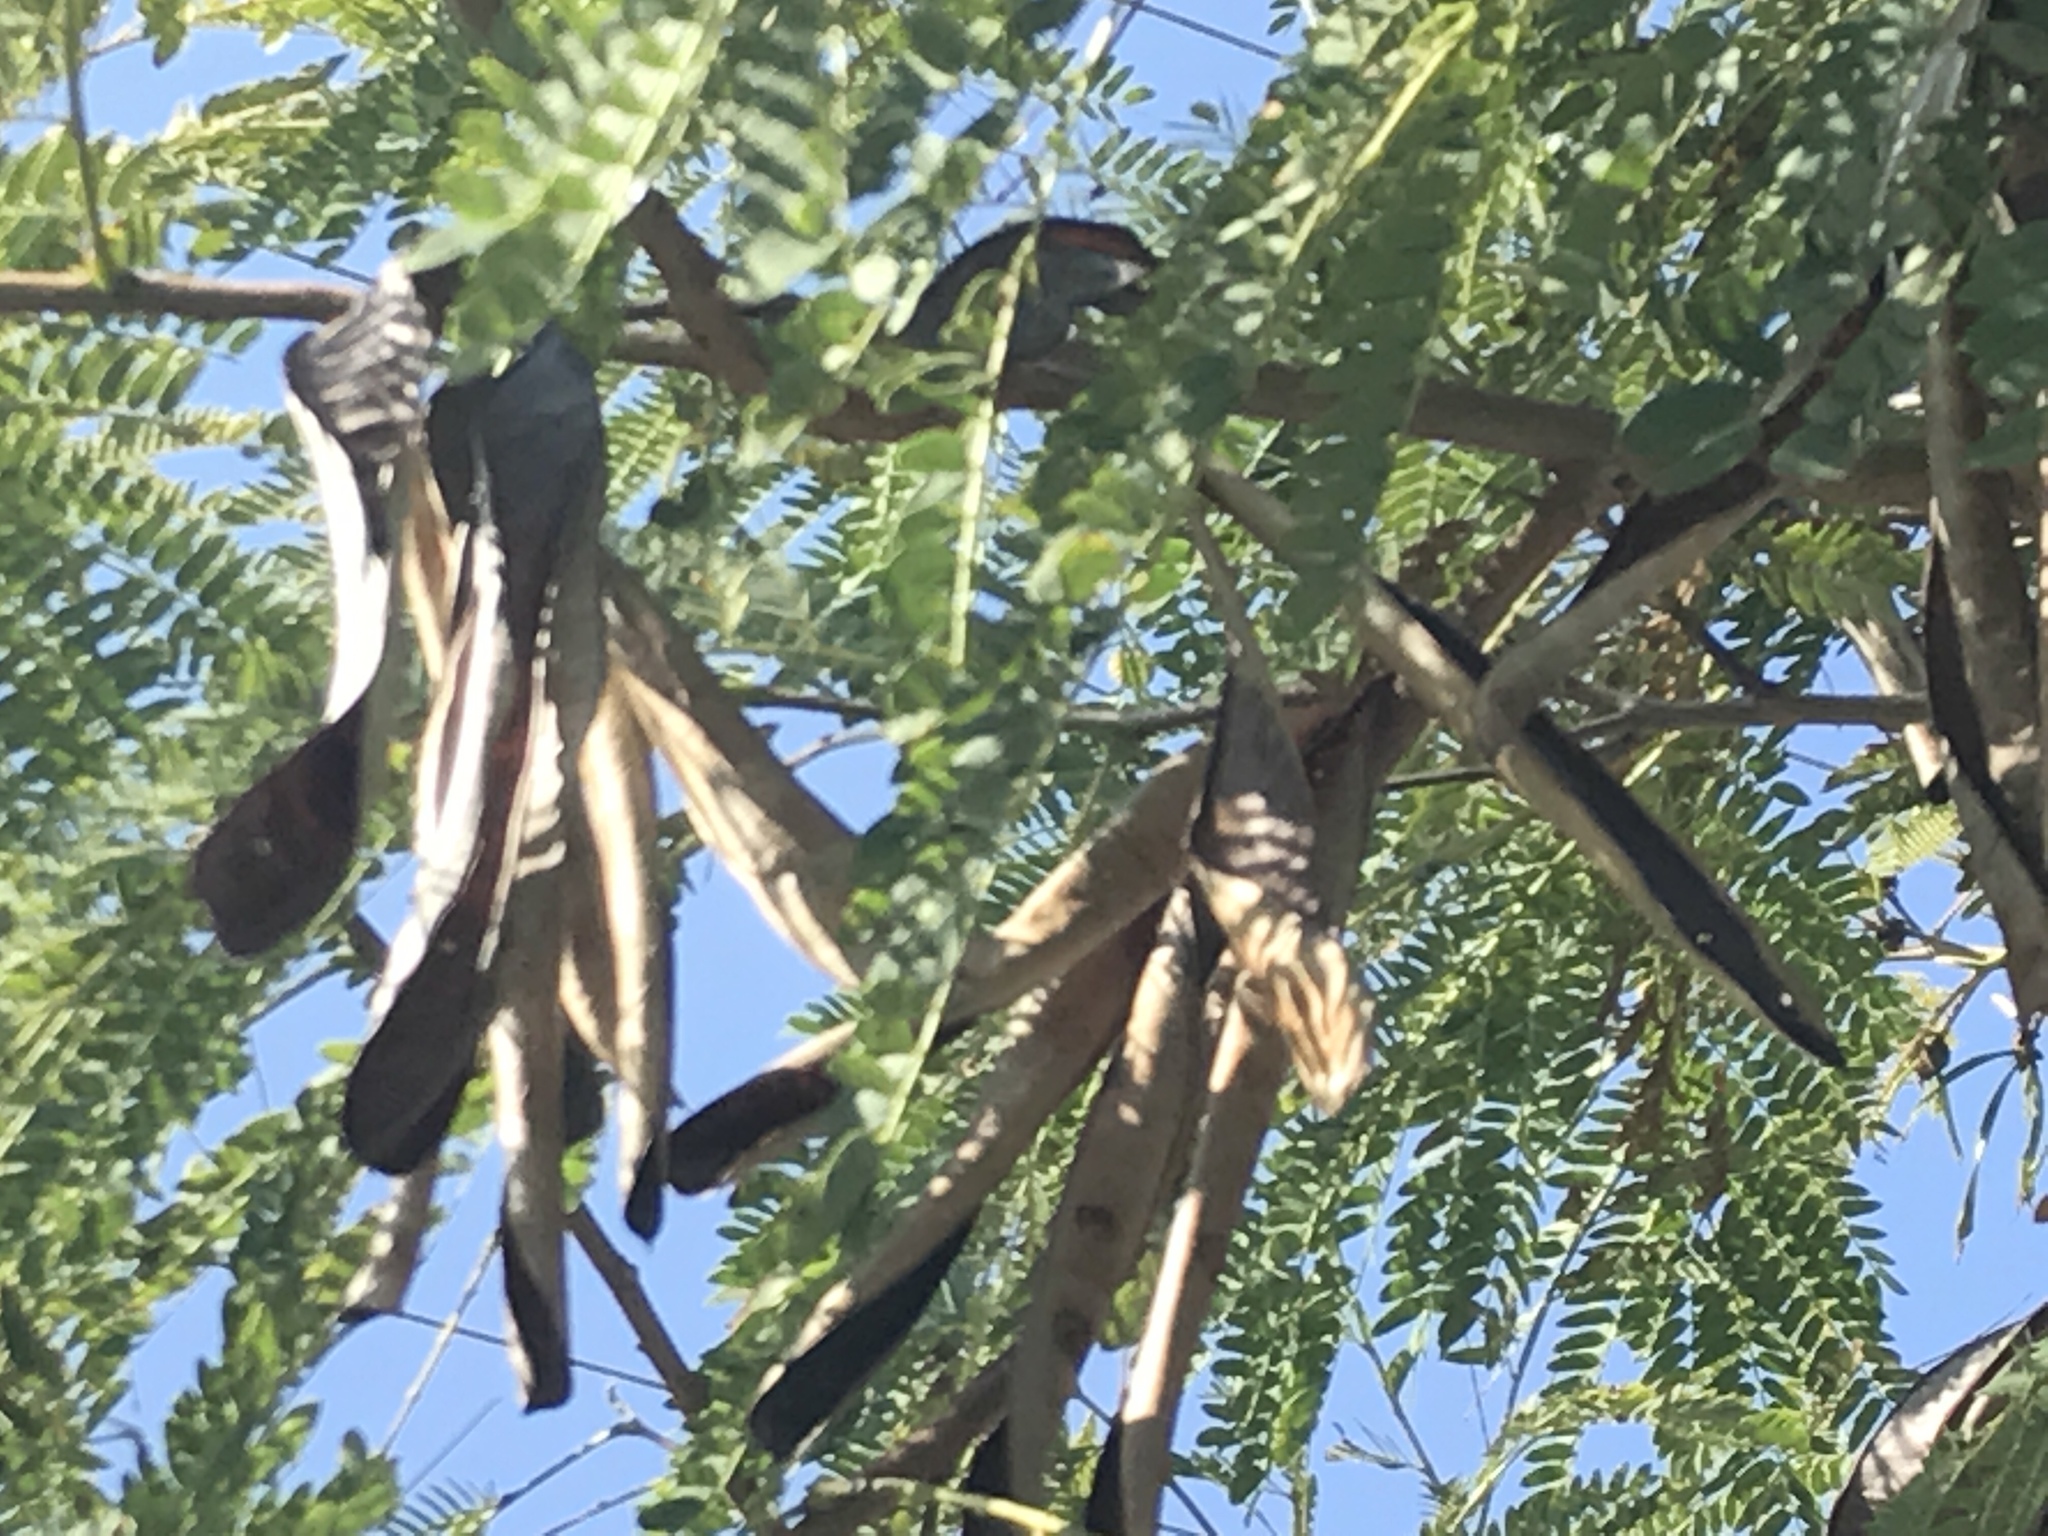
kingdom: Plantae
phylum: Tracheophyta
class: Magnoliopsida
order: Fabales
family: Fabaceae
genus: Leucaena
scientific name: Leucaena leucocephala
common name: White leadtree
